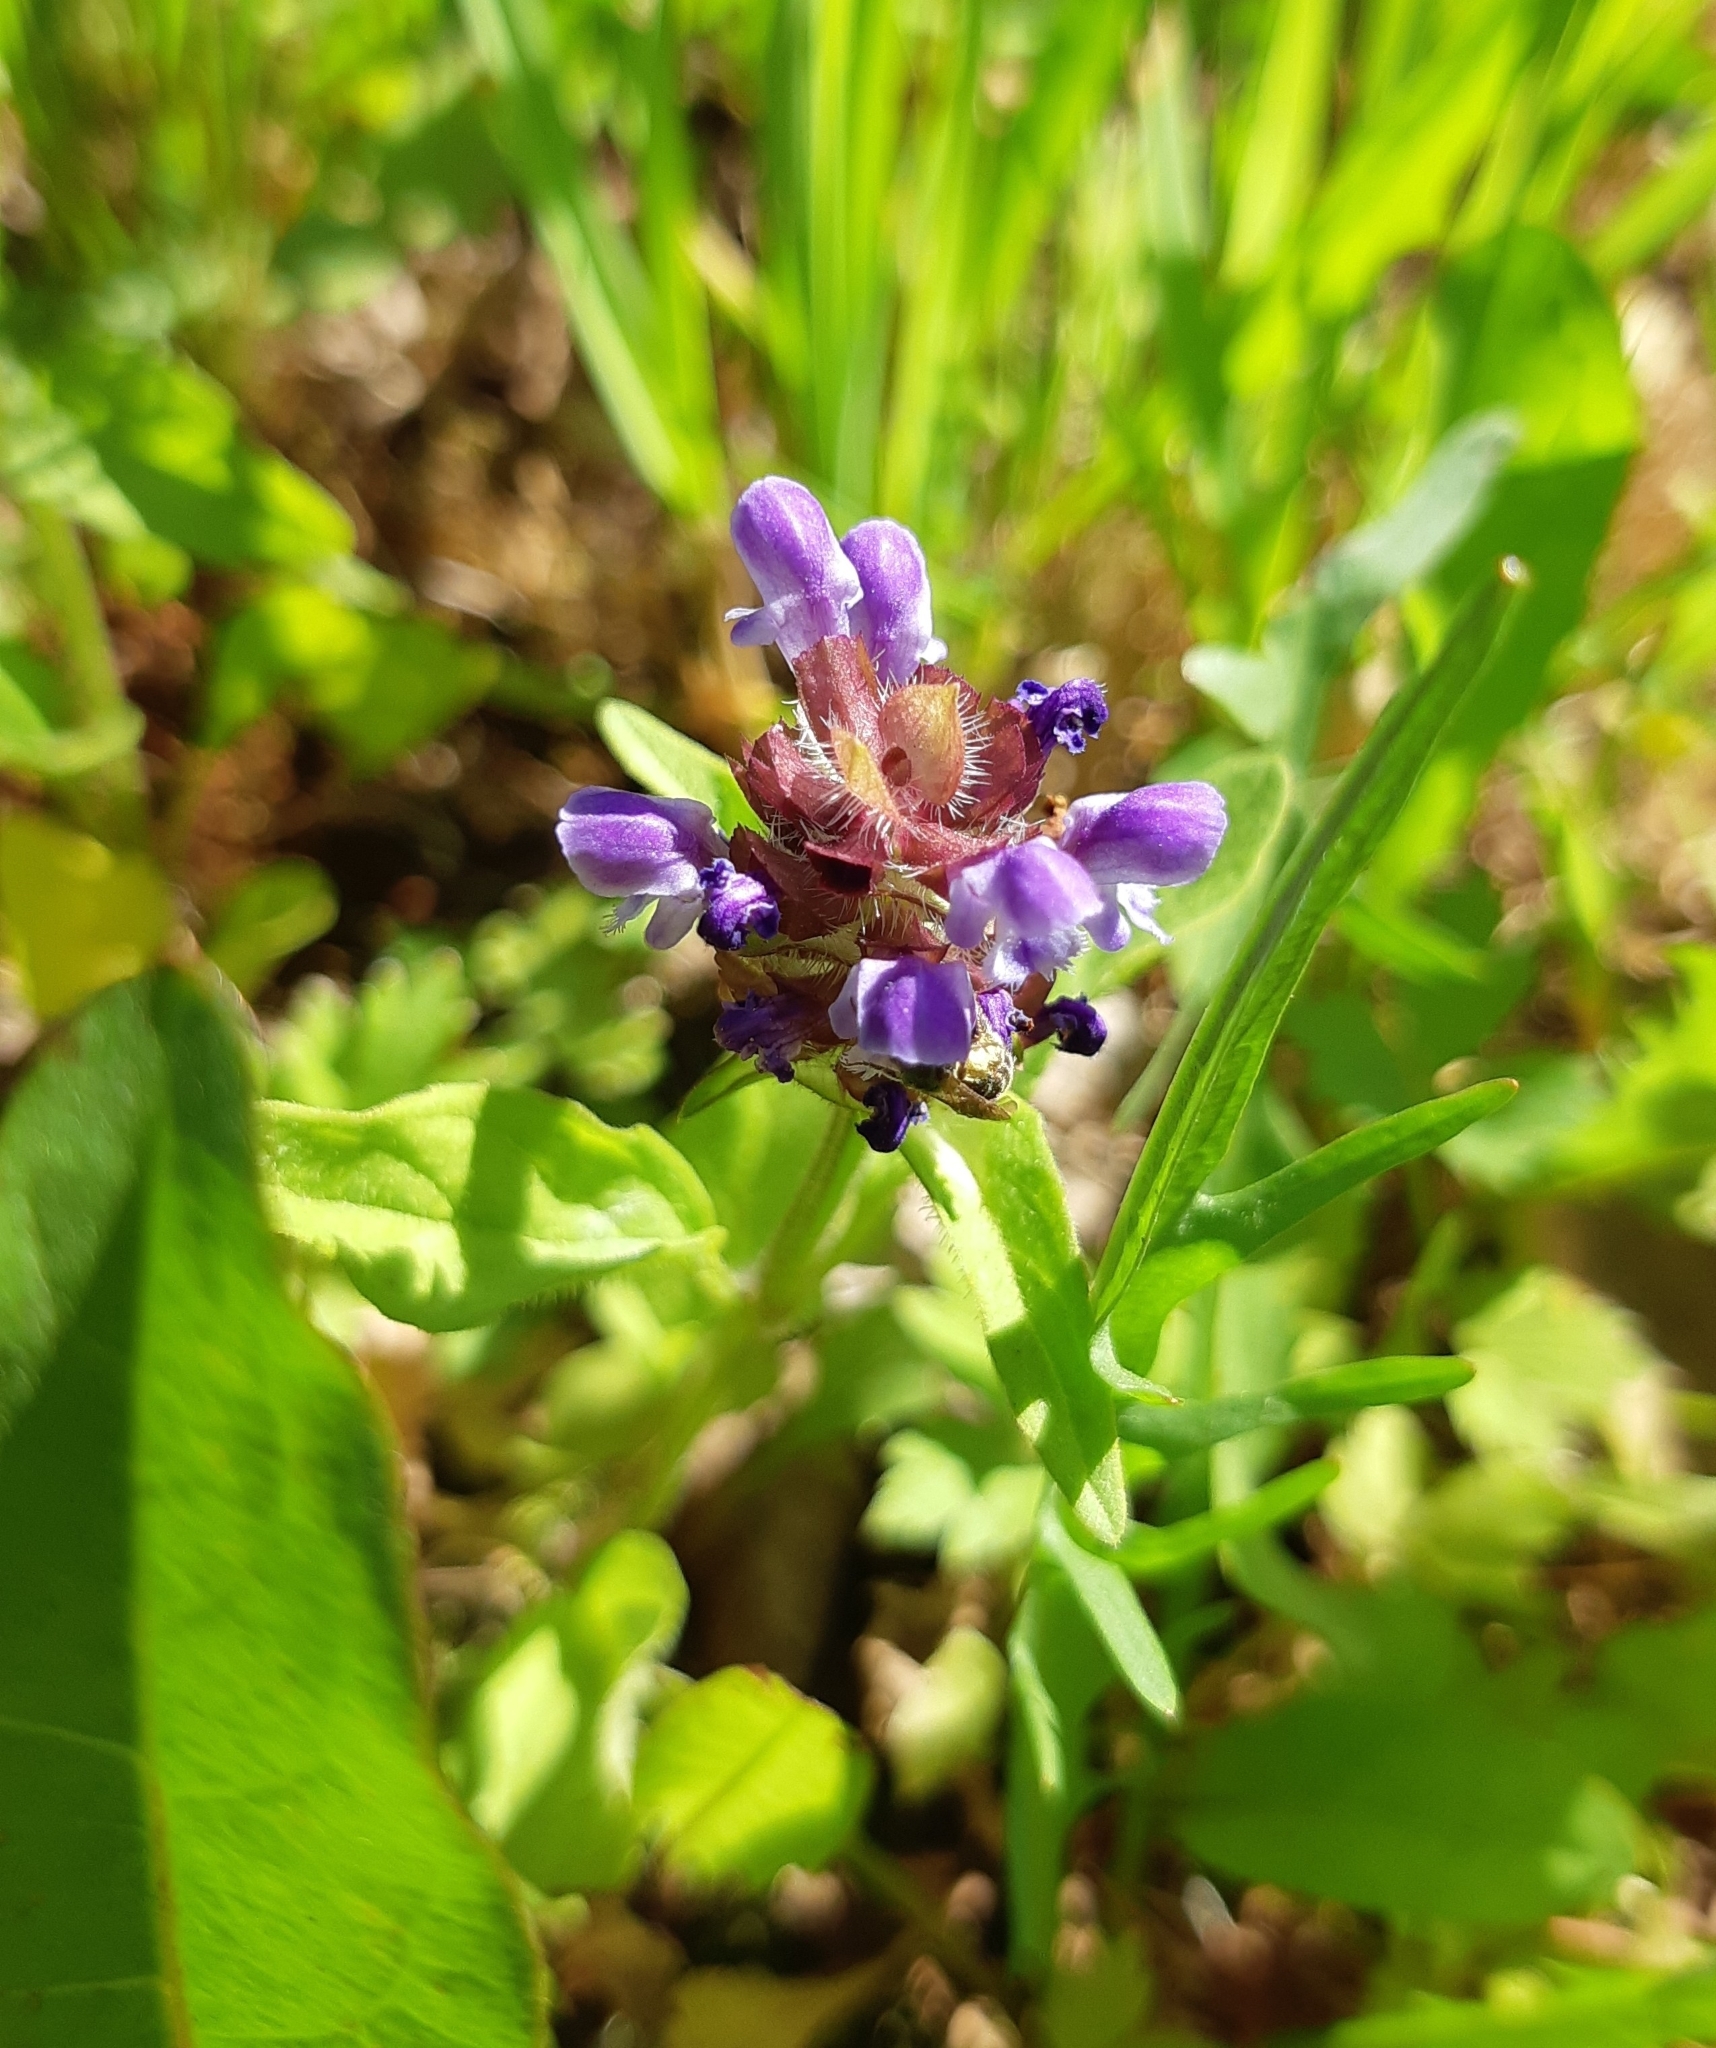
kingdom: Plantae
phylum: Tracheophyta
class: Magnoliopsida
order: Lamiales
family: Lamiaceae
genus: Prunella
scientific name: Prunella vulgaris
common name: Heal-all
